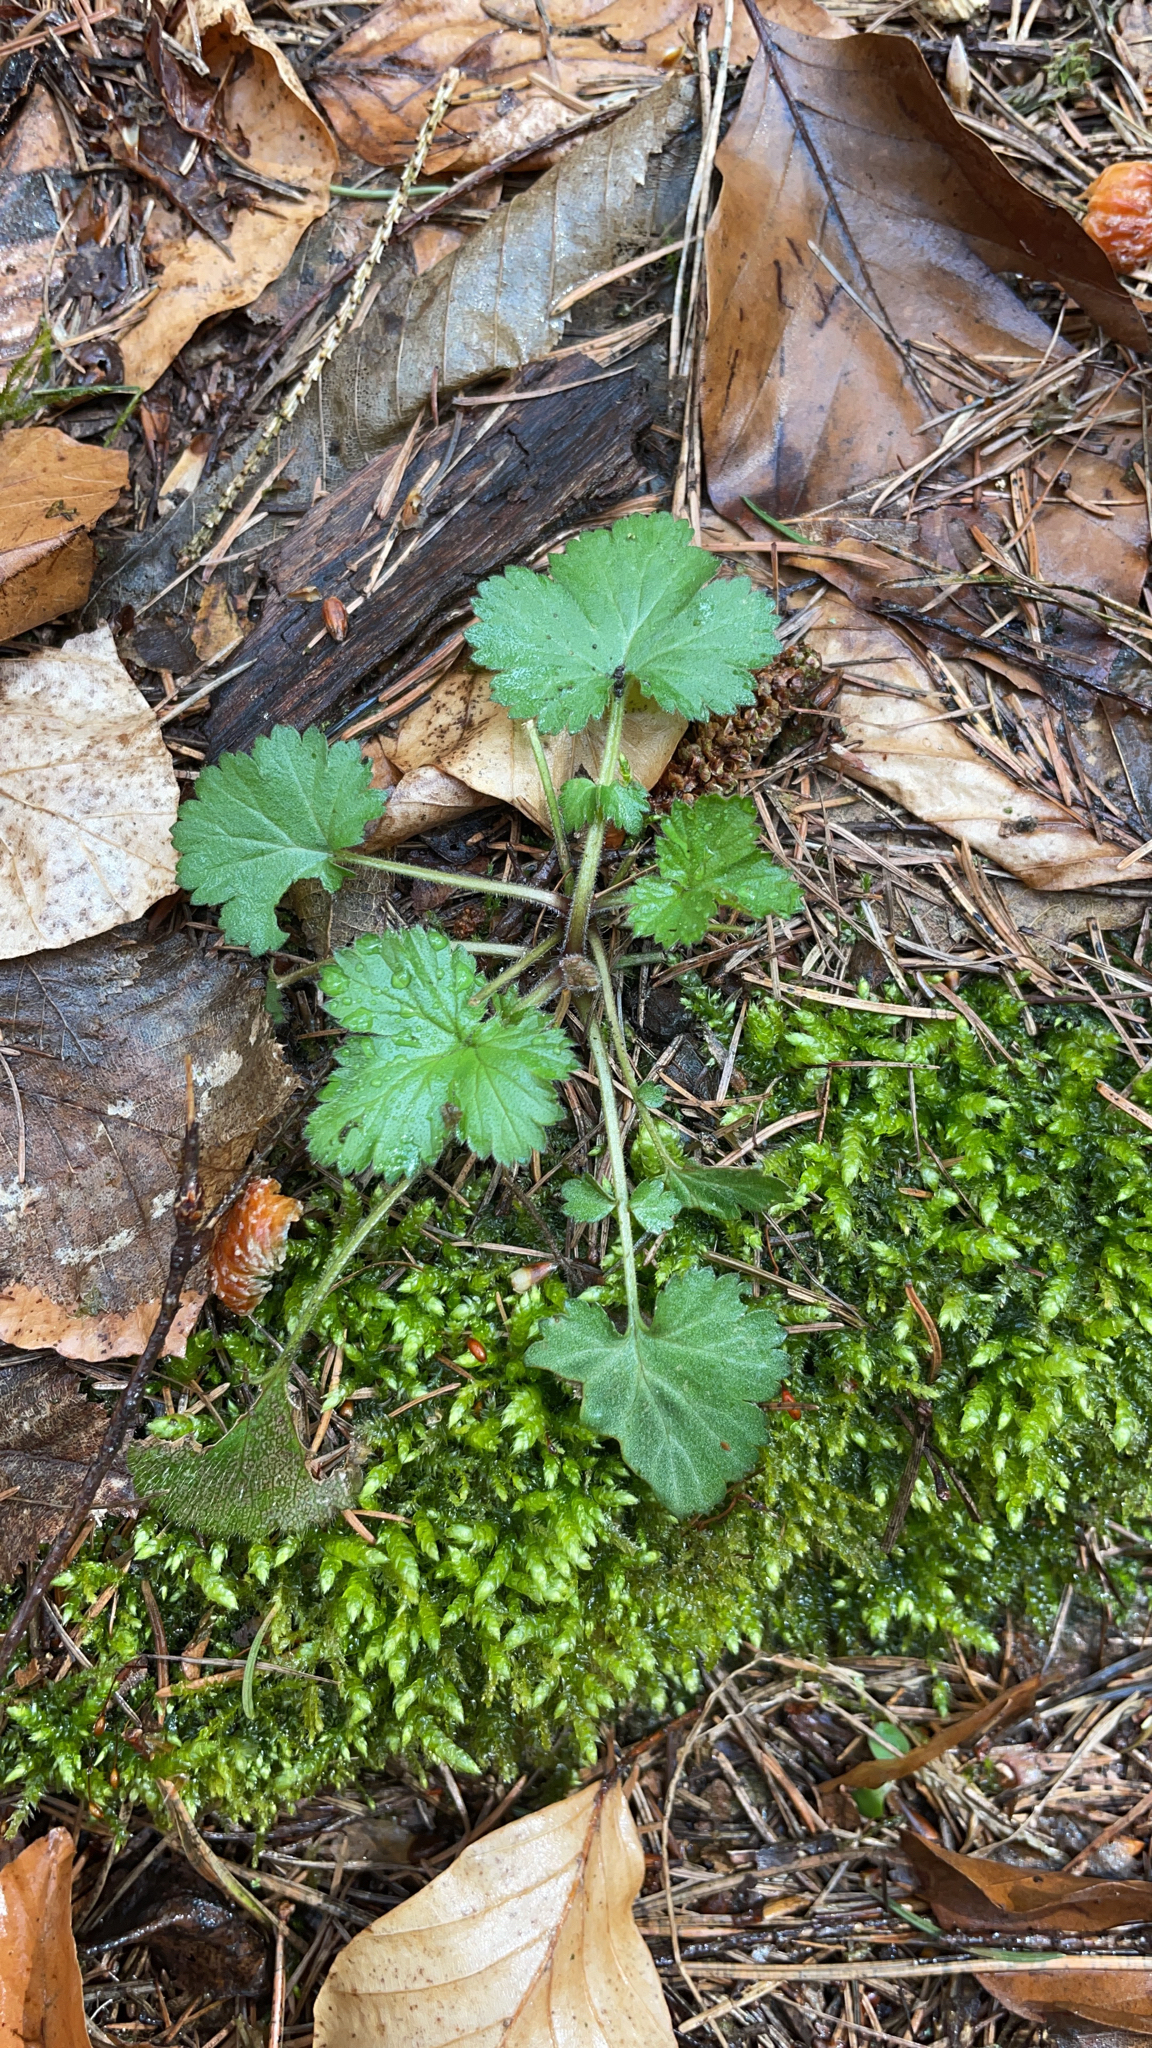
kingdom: Plantae
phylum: Tracheophyta
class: Magnoliopsida
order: Rosales
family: Rosaceae
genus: Geum
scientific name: Geum urbanum
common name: Wood avens
